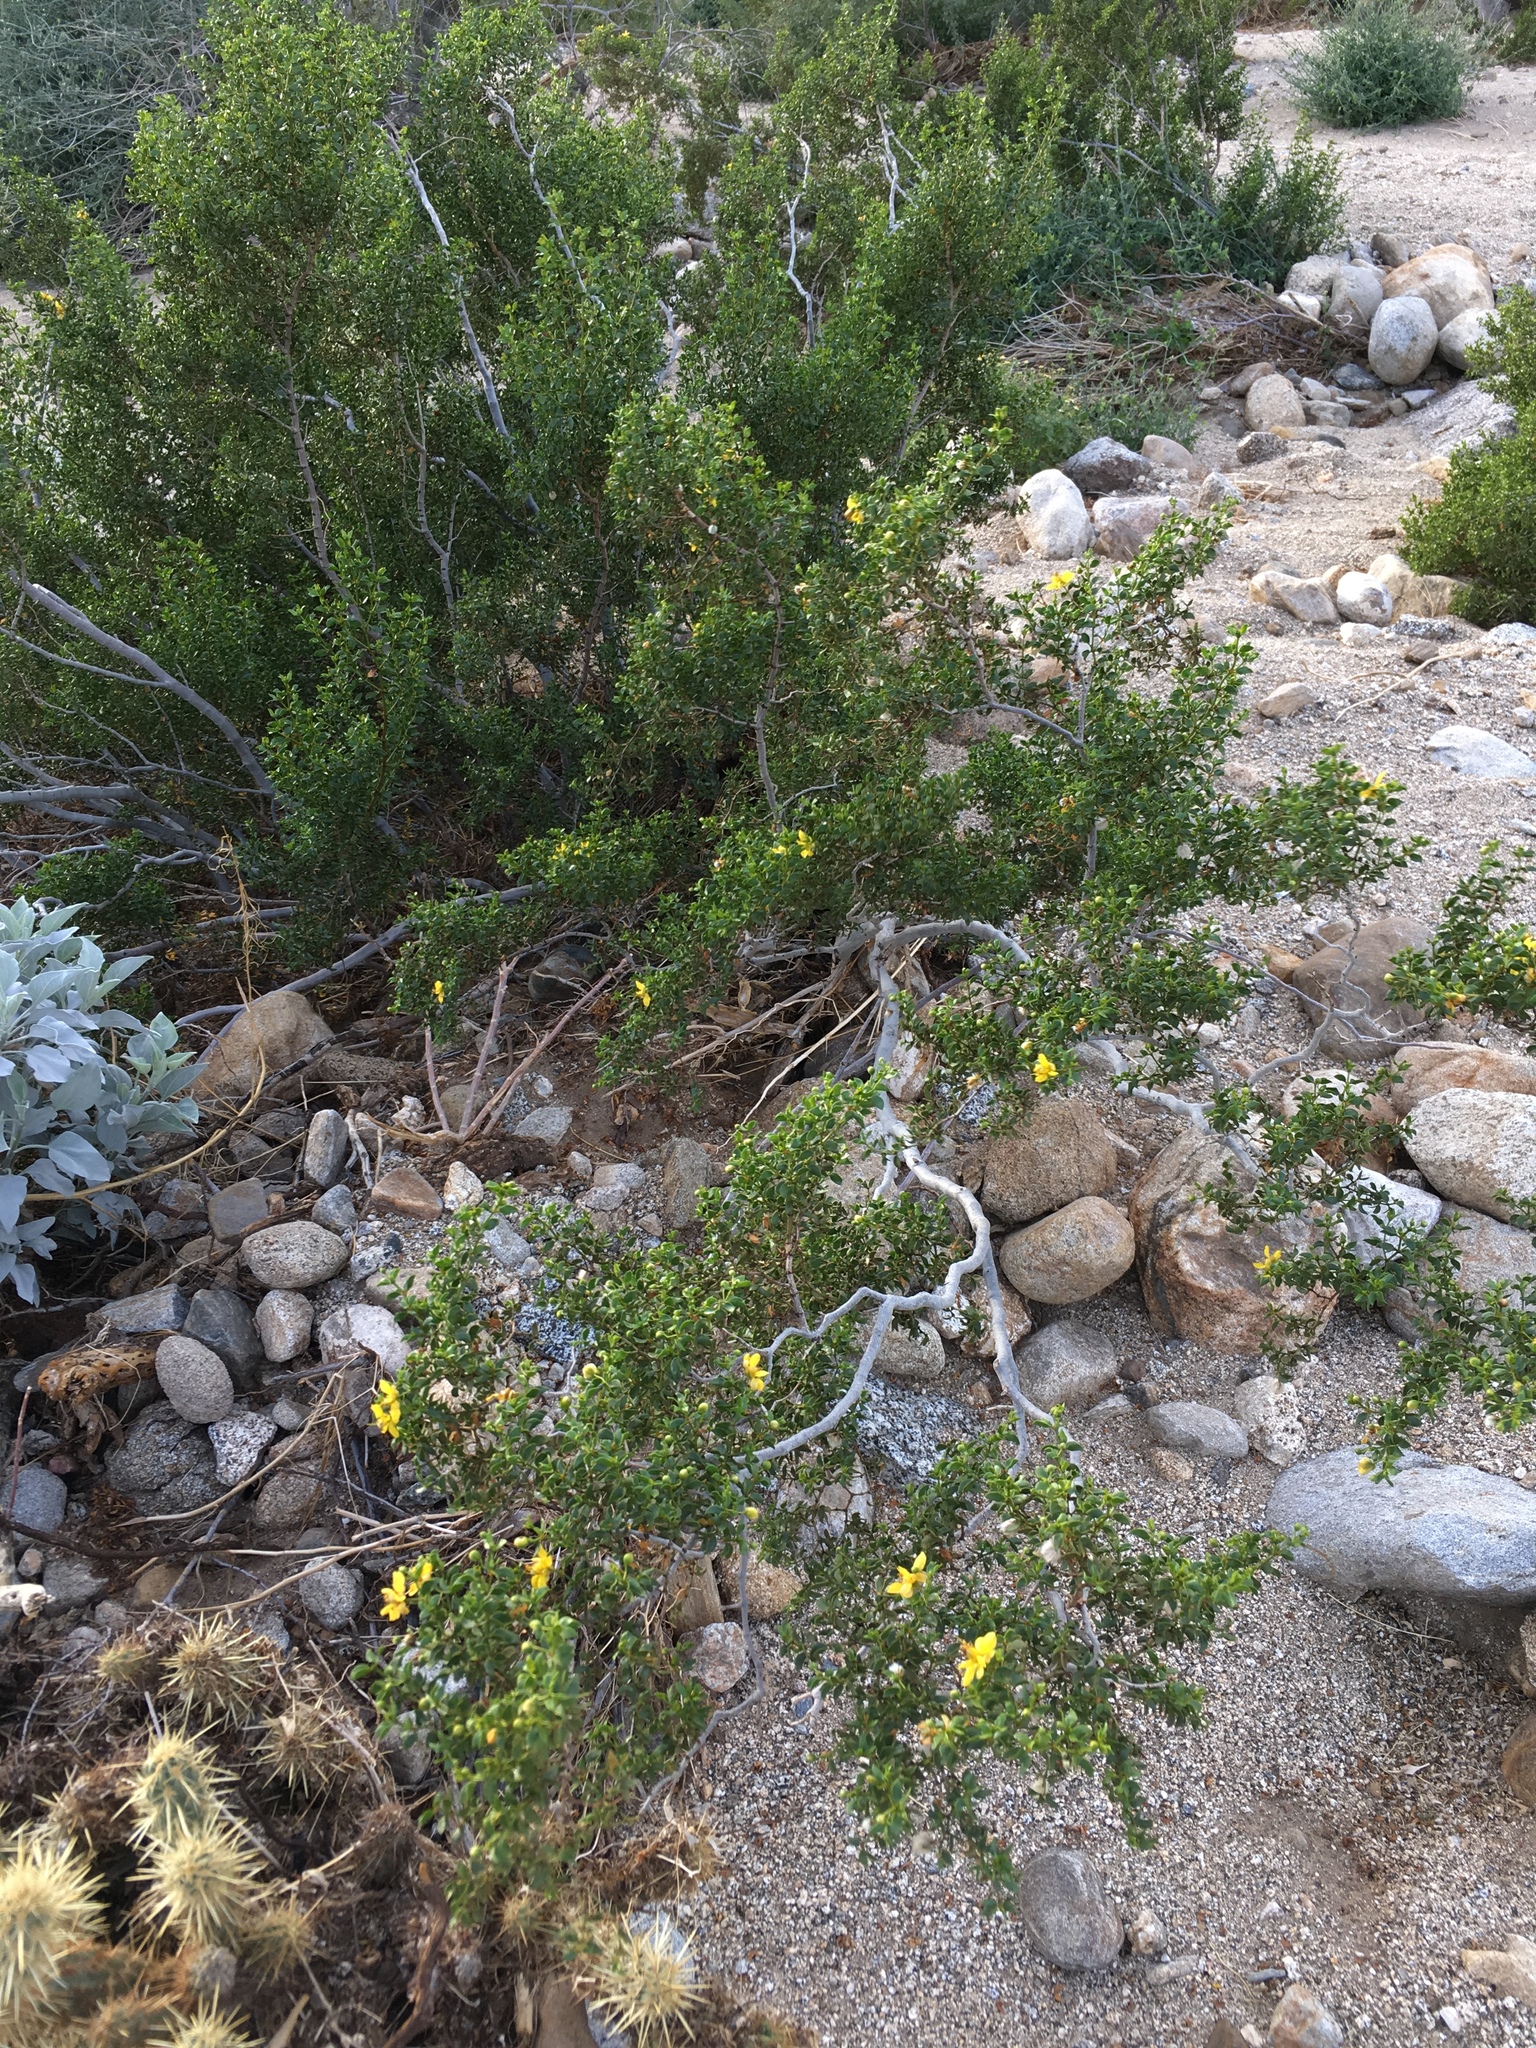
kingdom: Plantae
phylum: Tracheophyta
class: Magnoliopsida
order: Zygophyllales
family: Zygophyllaceae
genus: Larrea
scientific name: Larrea tridentata
